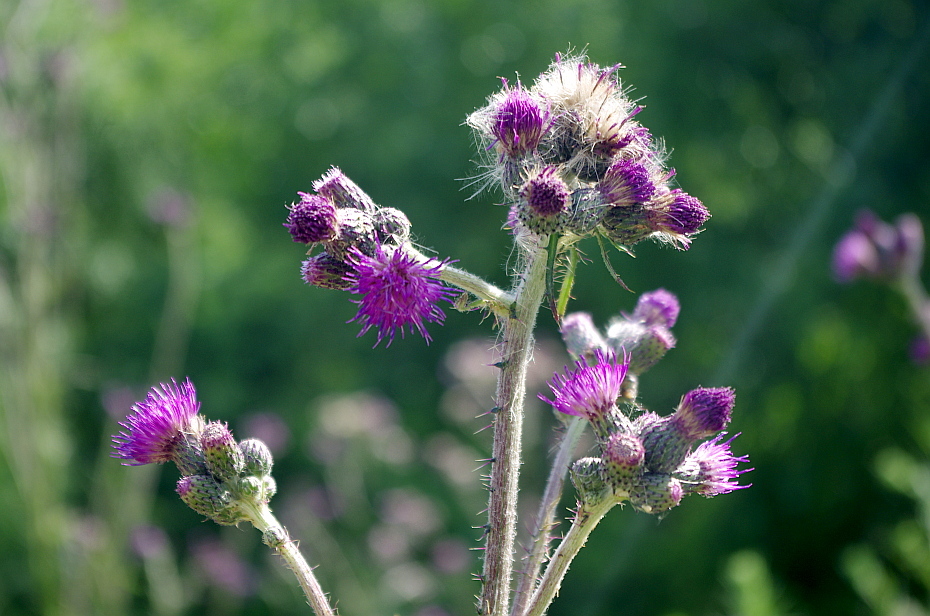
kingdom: Plantae
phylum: Tracheophyta
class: Magnoliopsida
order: Asterales
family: Asteraceae
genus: Cirsium
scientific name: Cirsium palustre
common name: Marsh thistle
